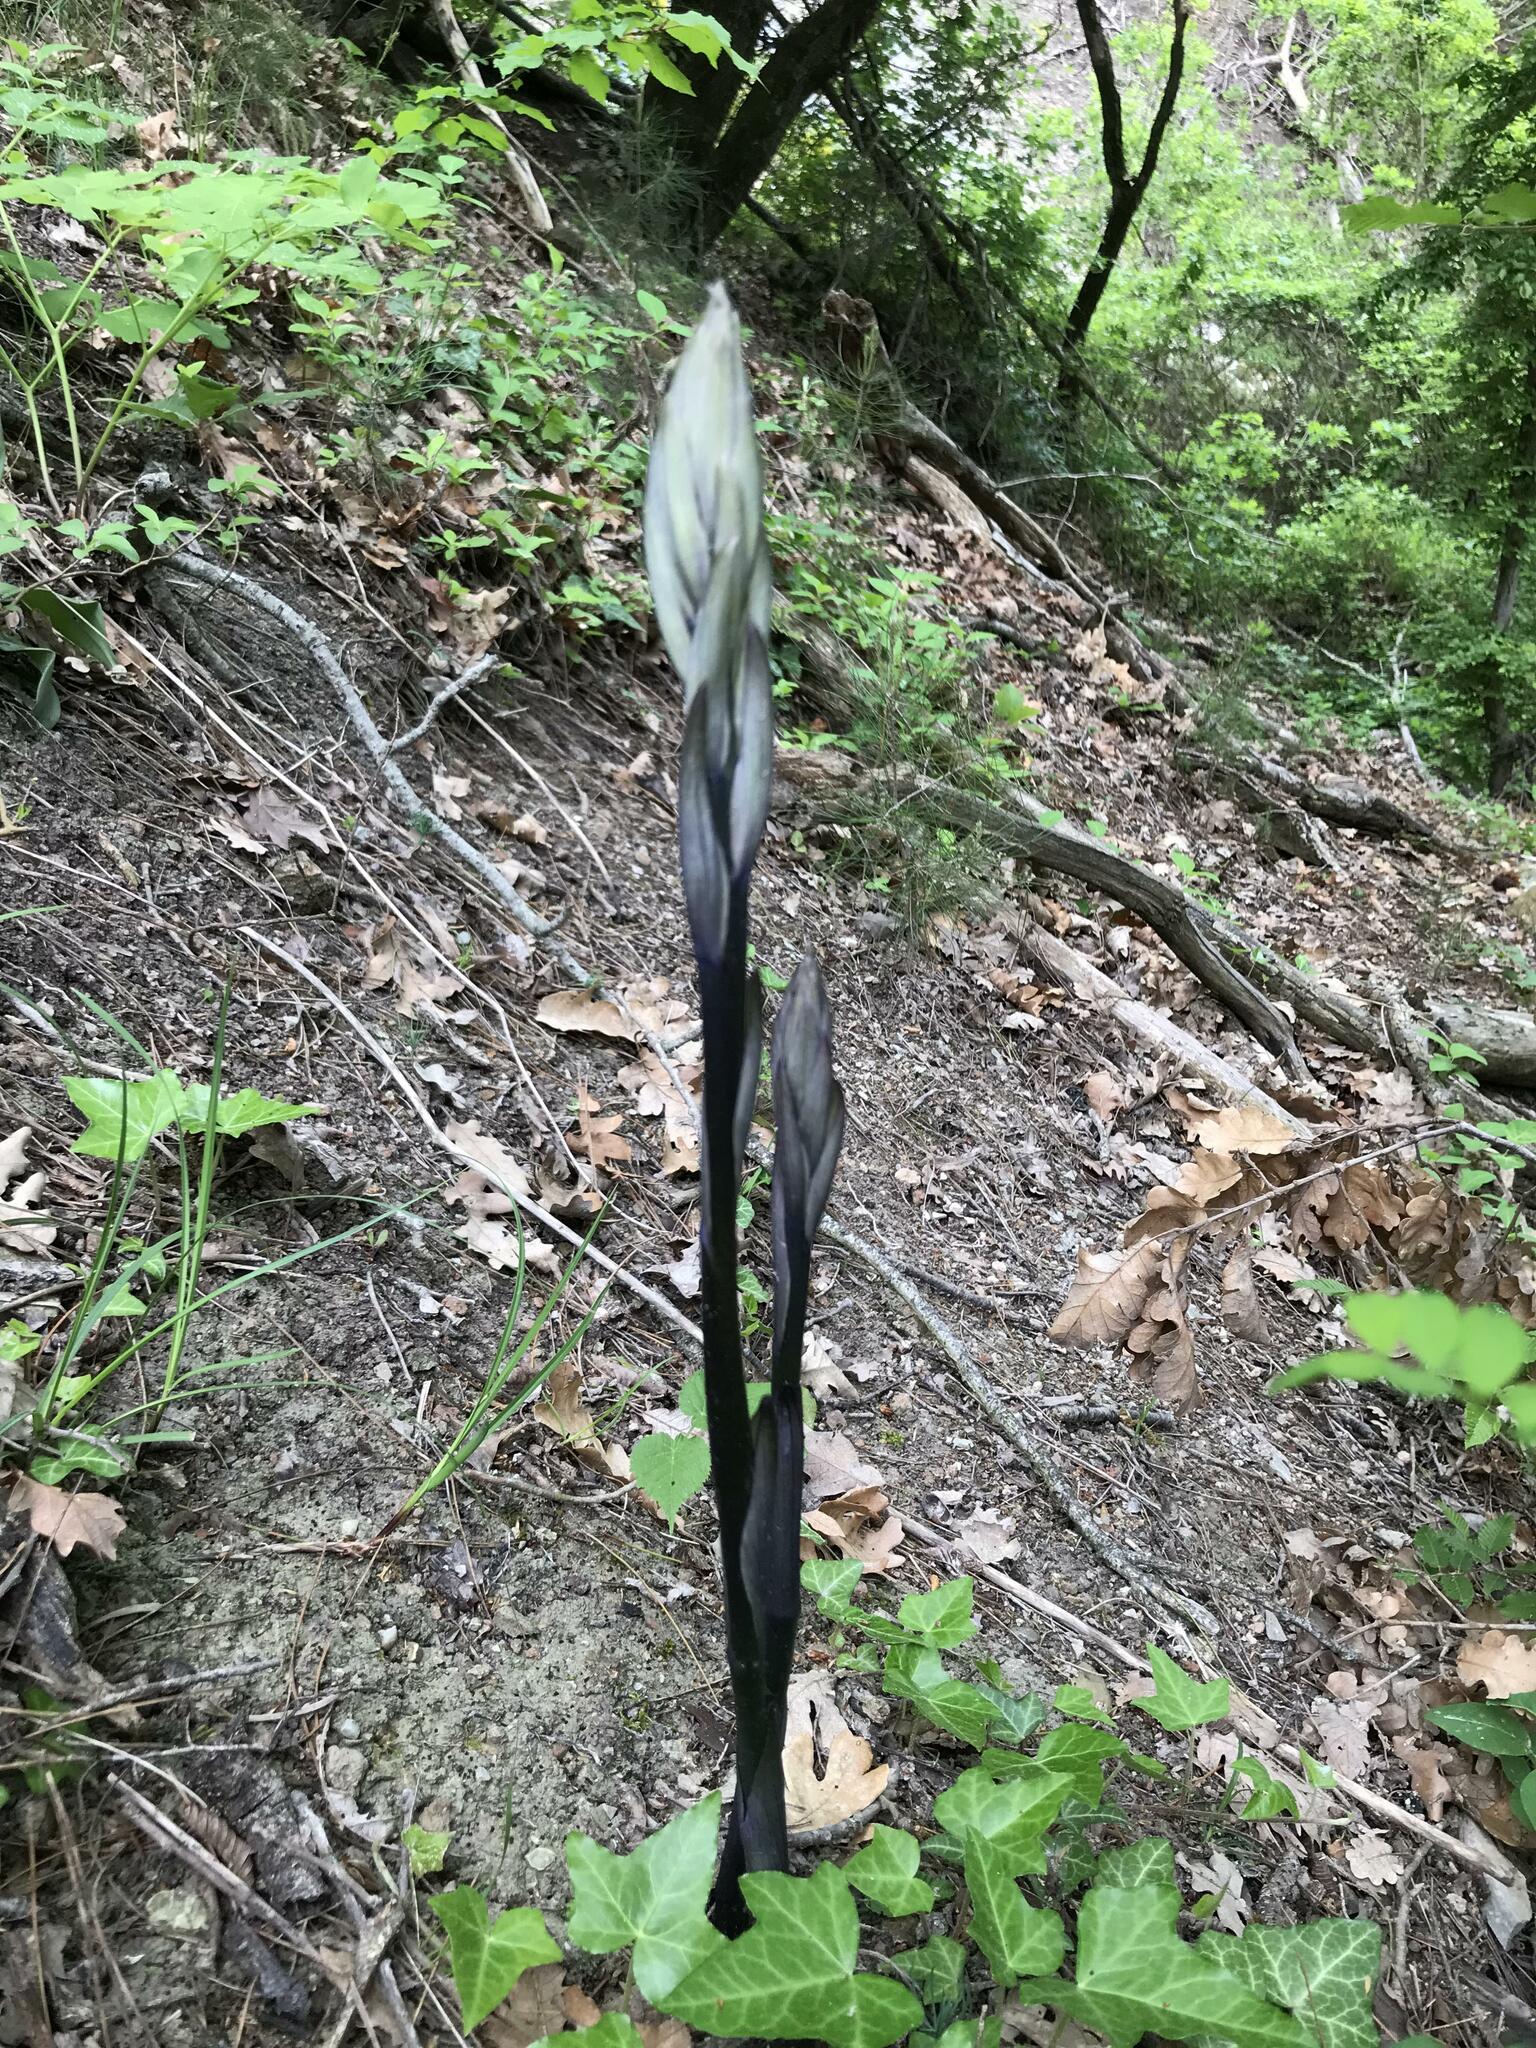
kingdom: Plantae
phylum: Tracheophyta
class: Liliopsida
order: Asparagales
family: Orchidaceae
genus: Limodorum
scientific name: Limodorum abortivum
